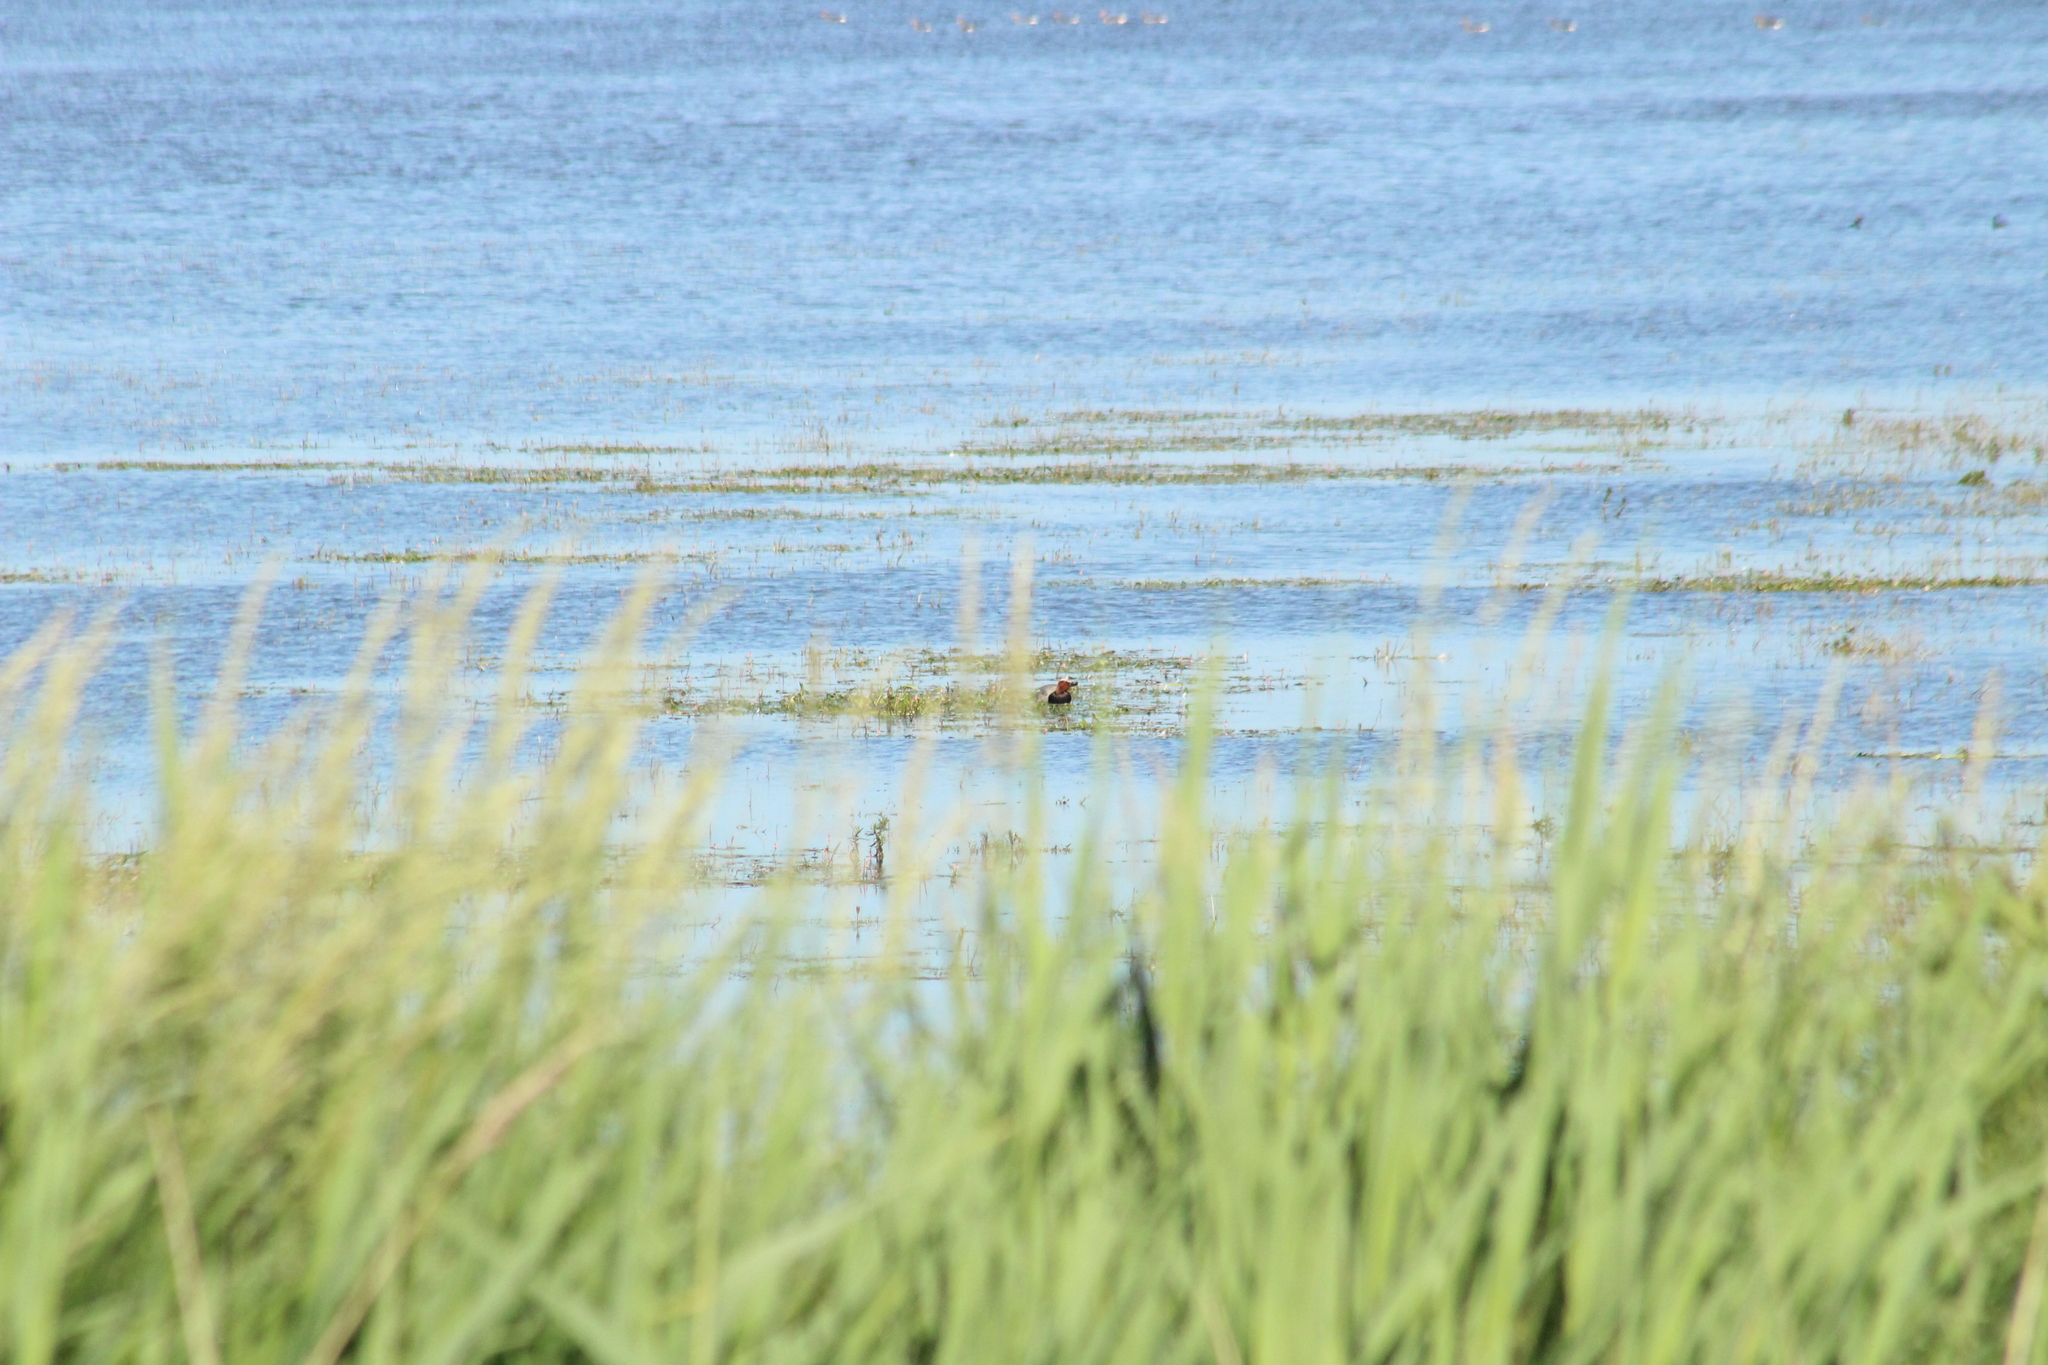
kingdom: Animalia
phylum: Chordata
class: Aves
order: Anseriformes
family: Anatidae
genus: Aythya
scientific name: Aythya ferina
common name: Common pochard
